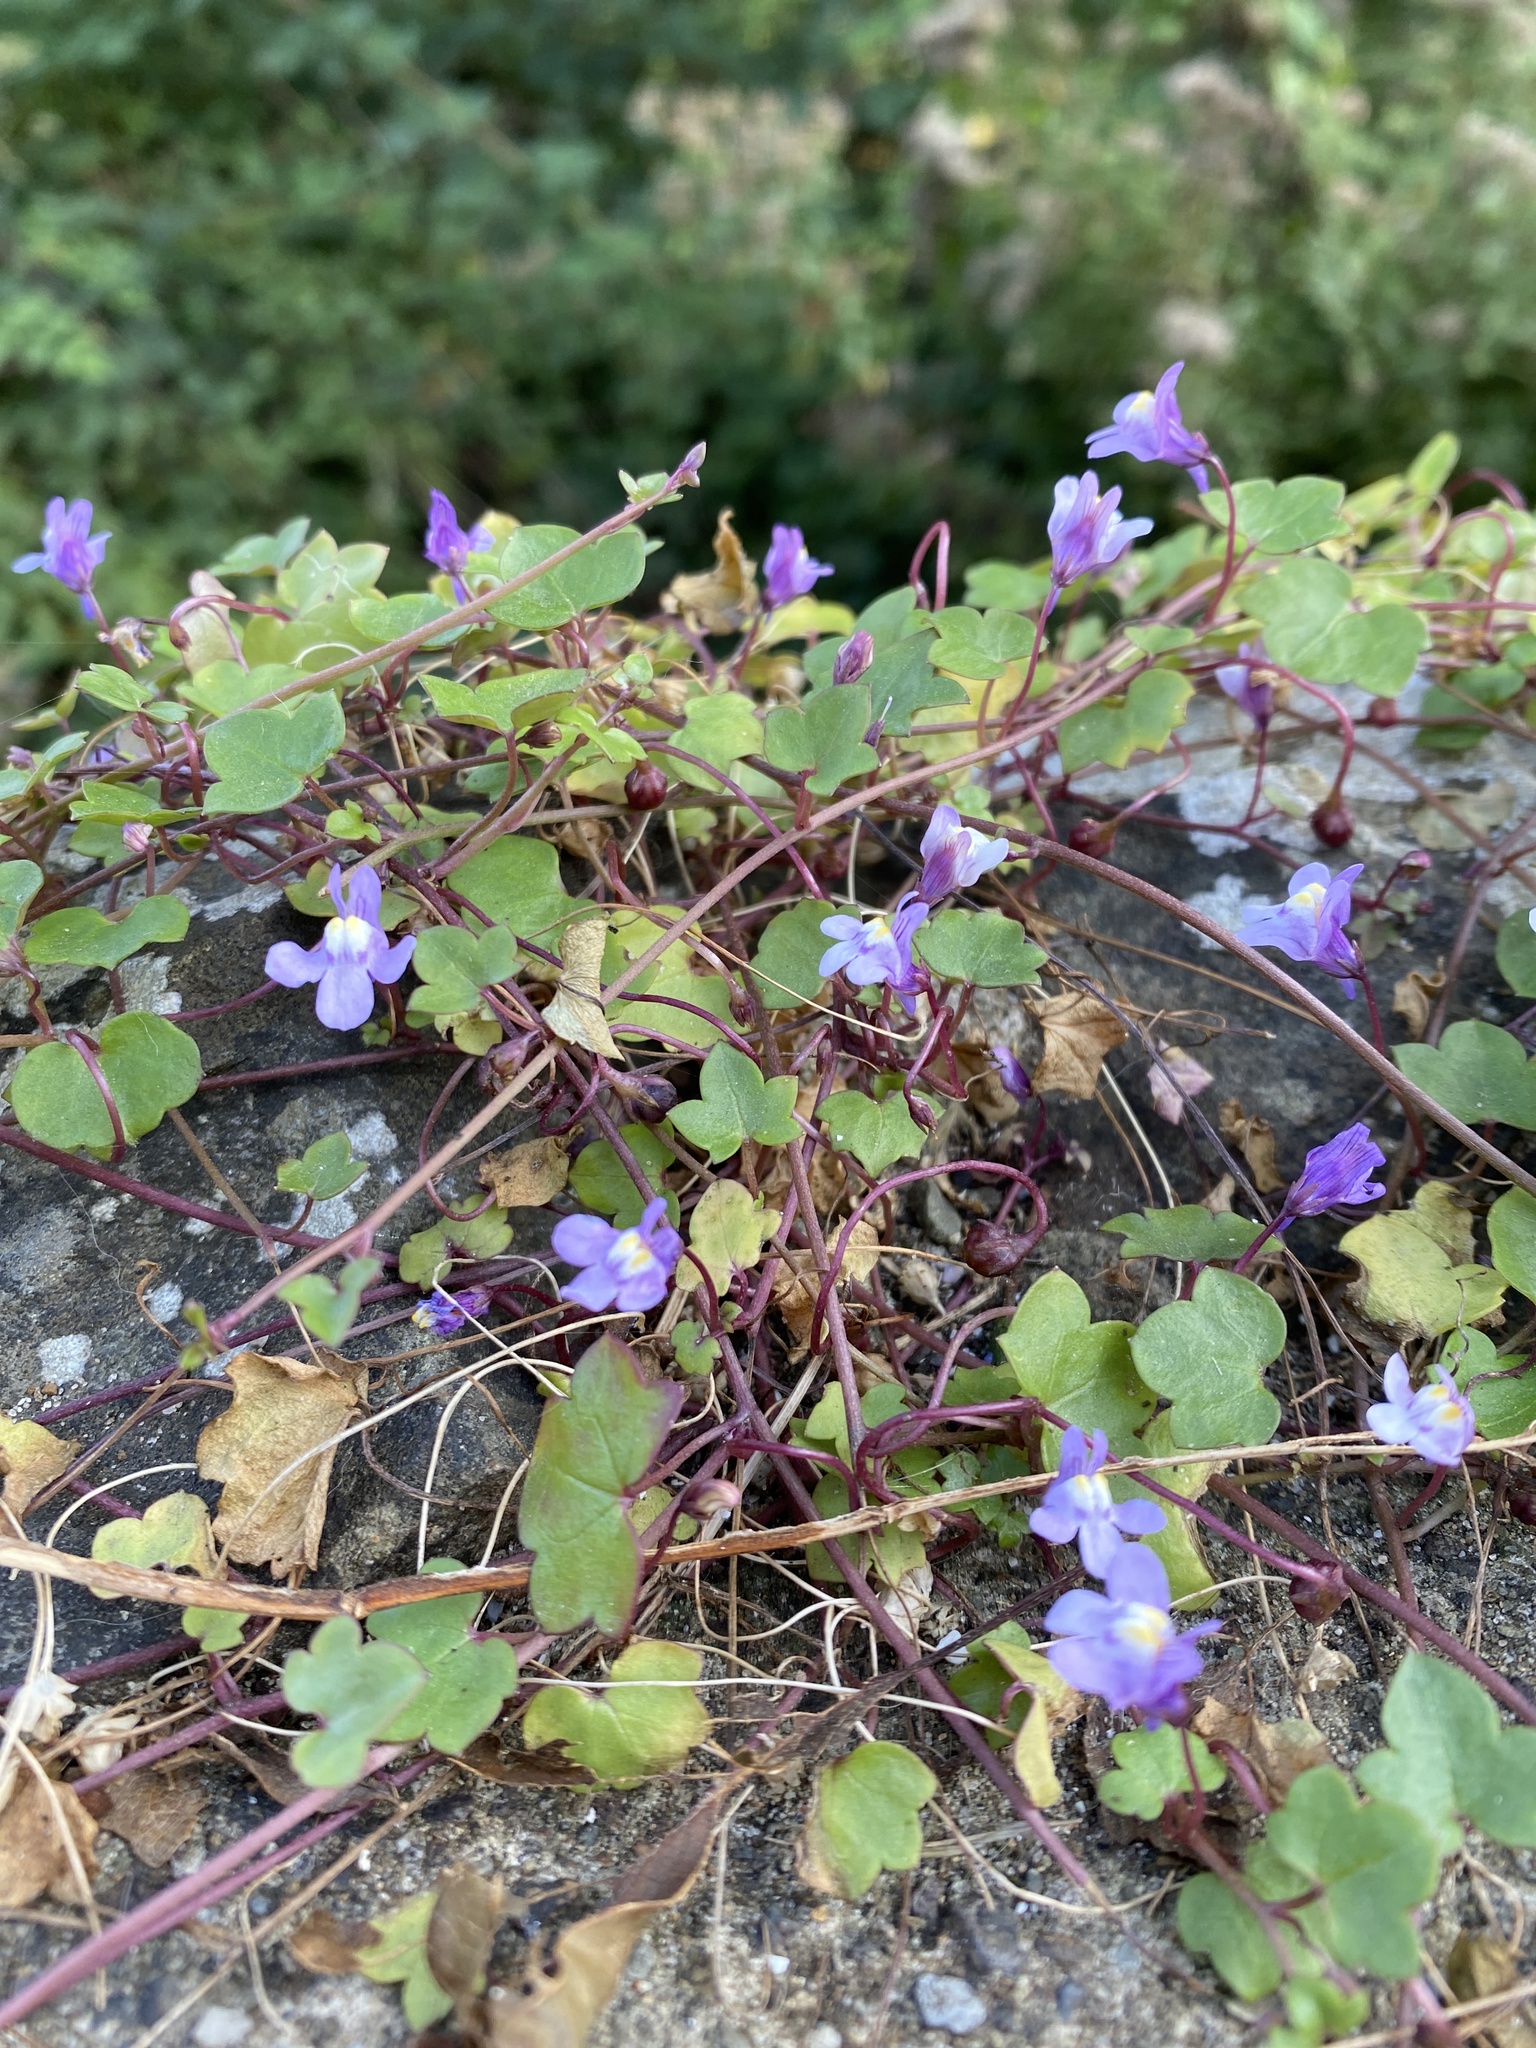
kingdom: Plantae
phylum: Tracheophyta
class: Magnoliopsida
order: Lamiales
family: Plantaginaceae
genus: Cymbalaria
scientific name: Cymbalaria muralis
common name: Ivy-leaved toadflax
